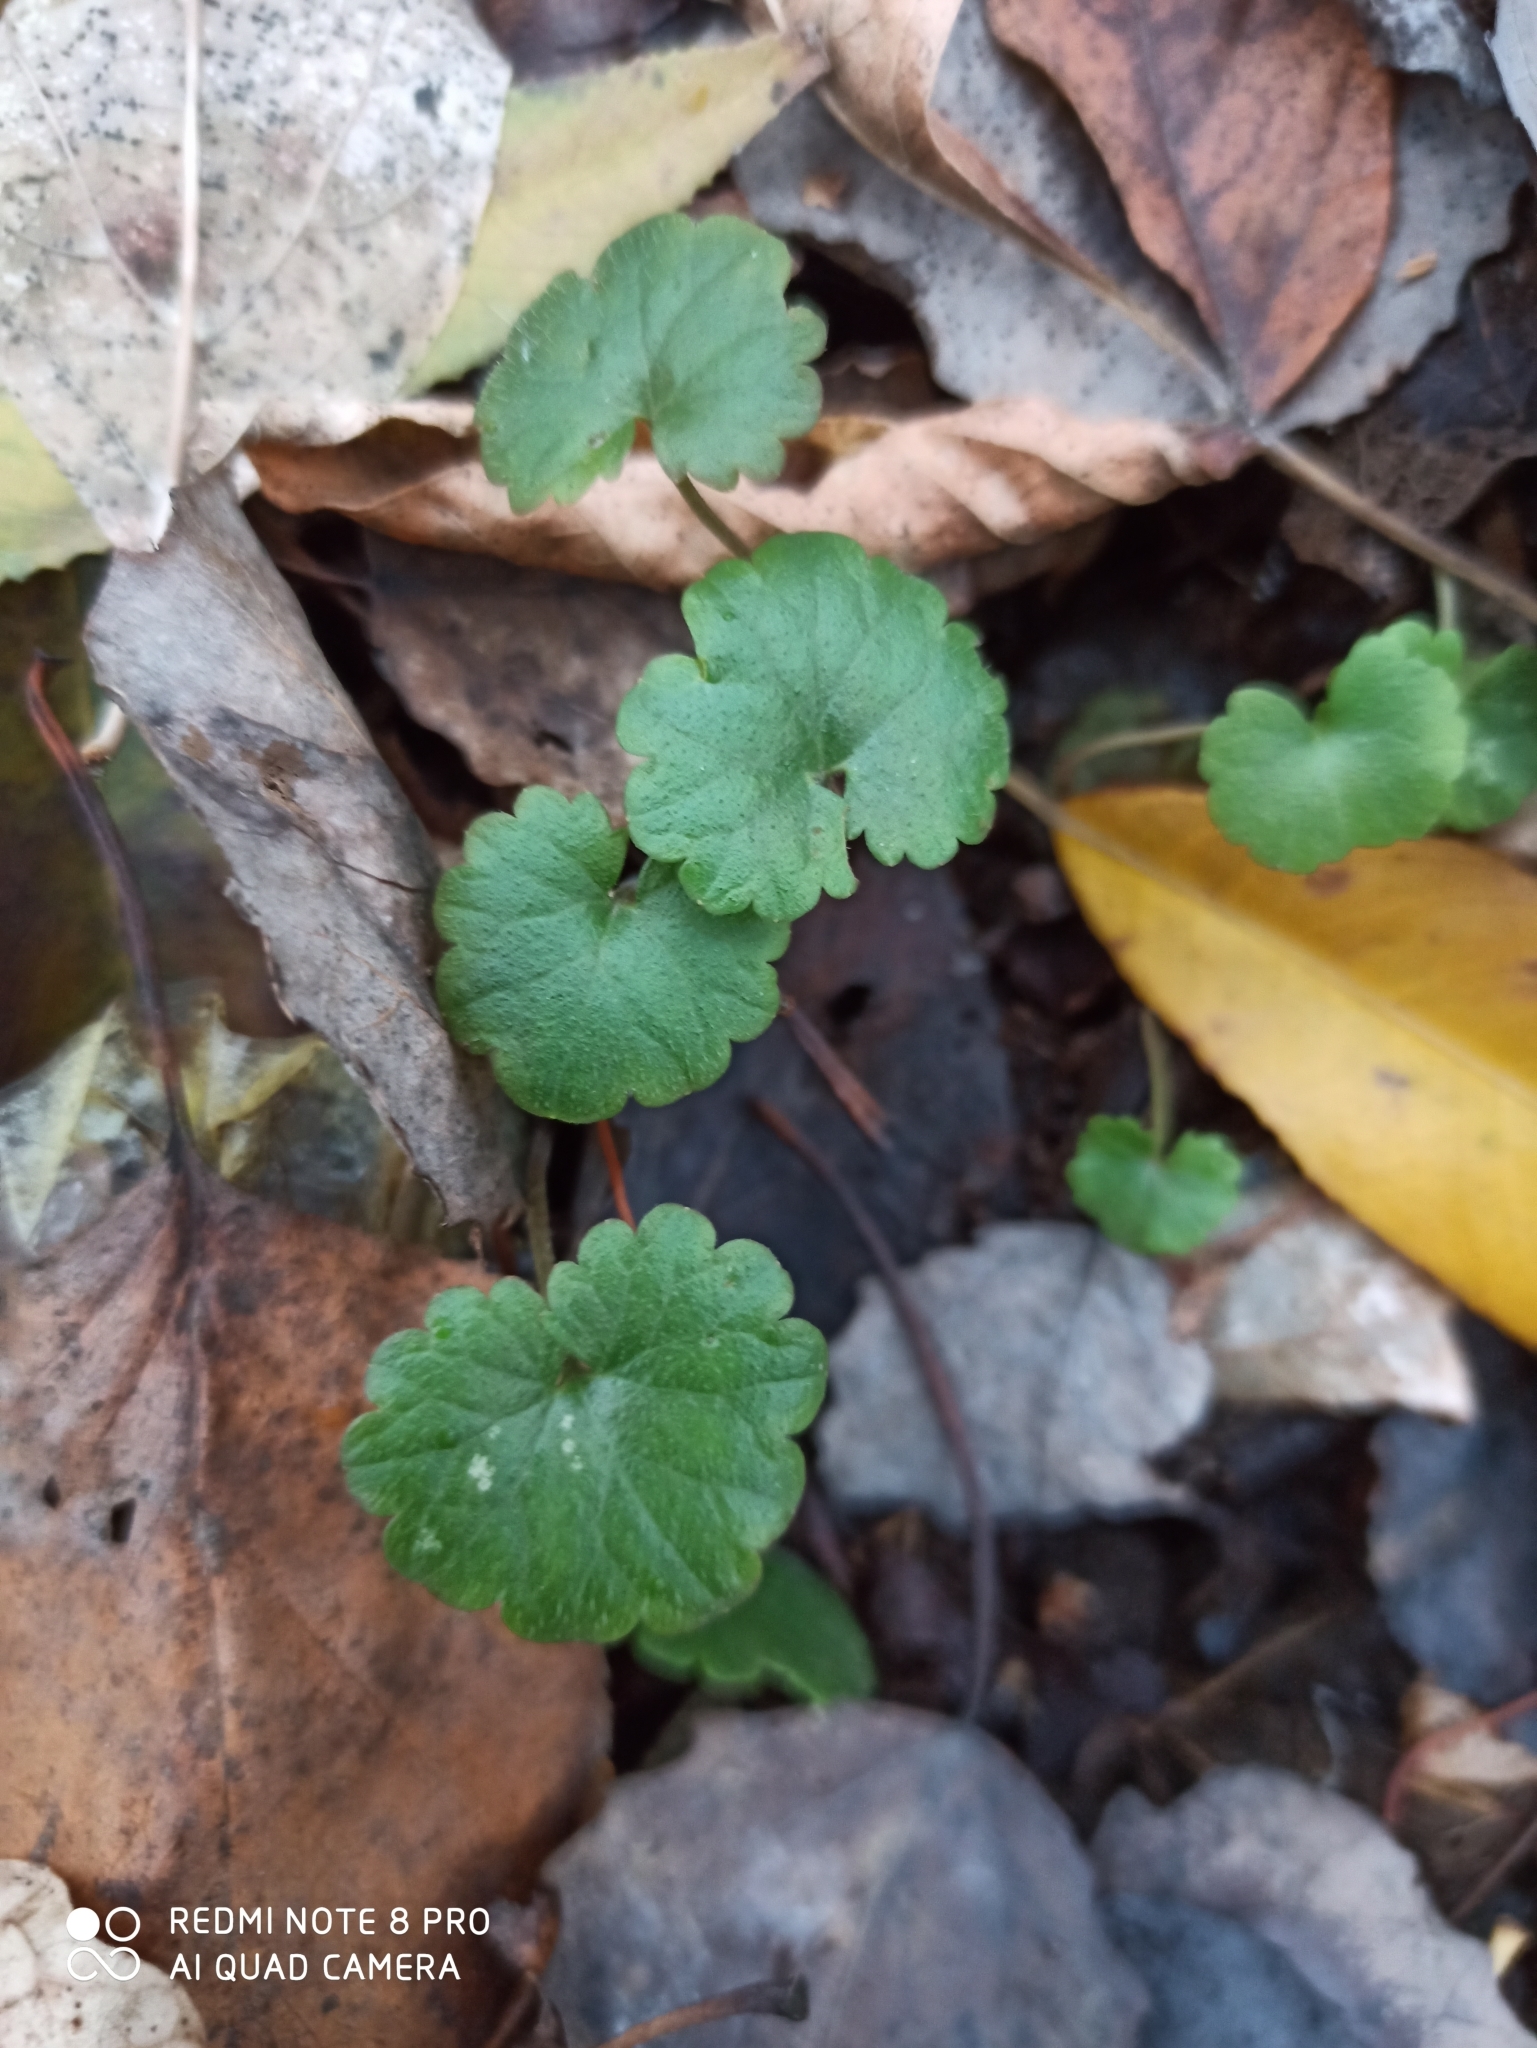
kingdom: Plantae
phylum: Tracheophyta
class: Magnoliopsida
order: Lamiales
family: Lamiaceae
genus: Glechoma
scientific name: Glechoma hederacea
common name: Ground ivy
